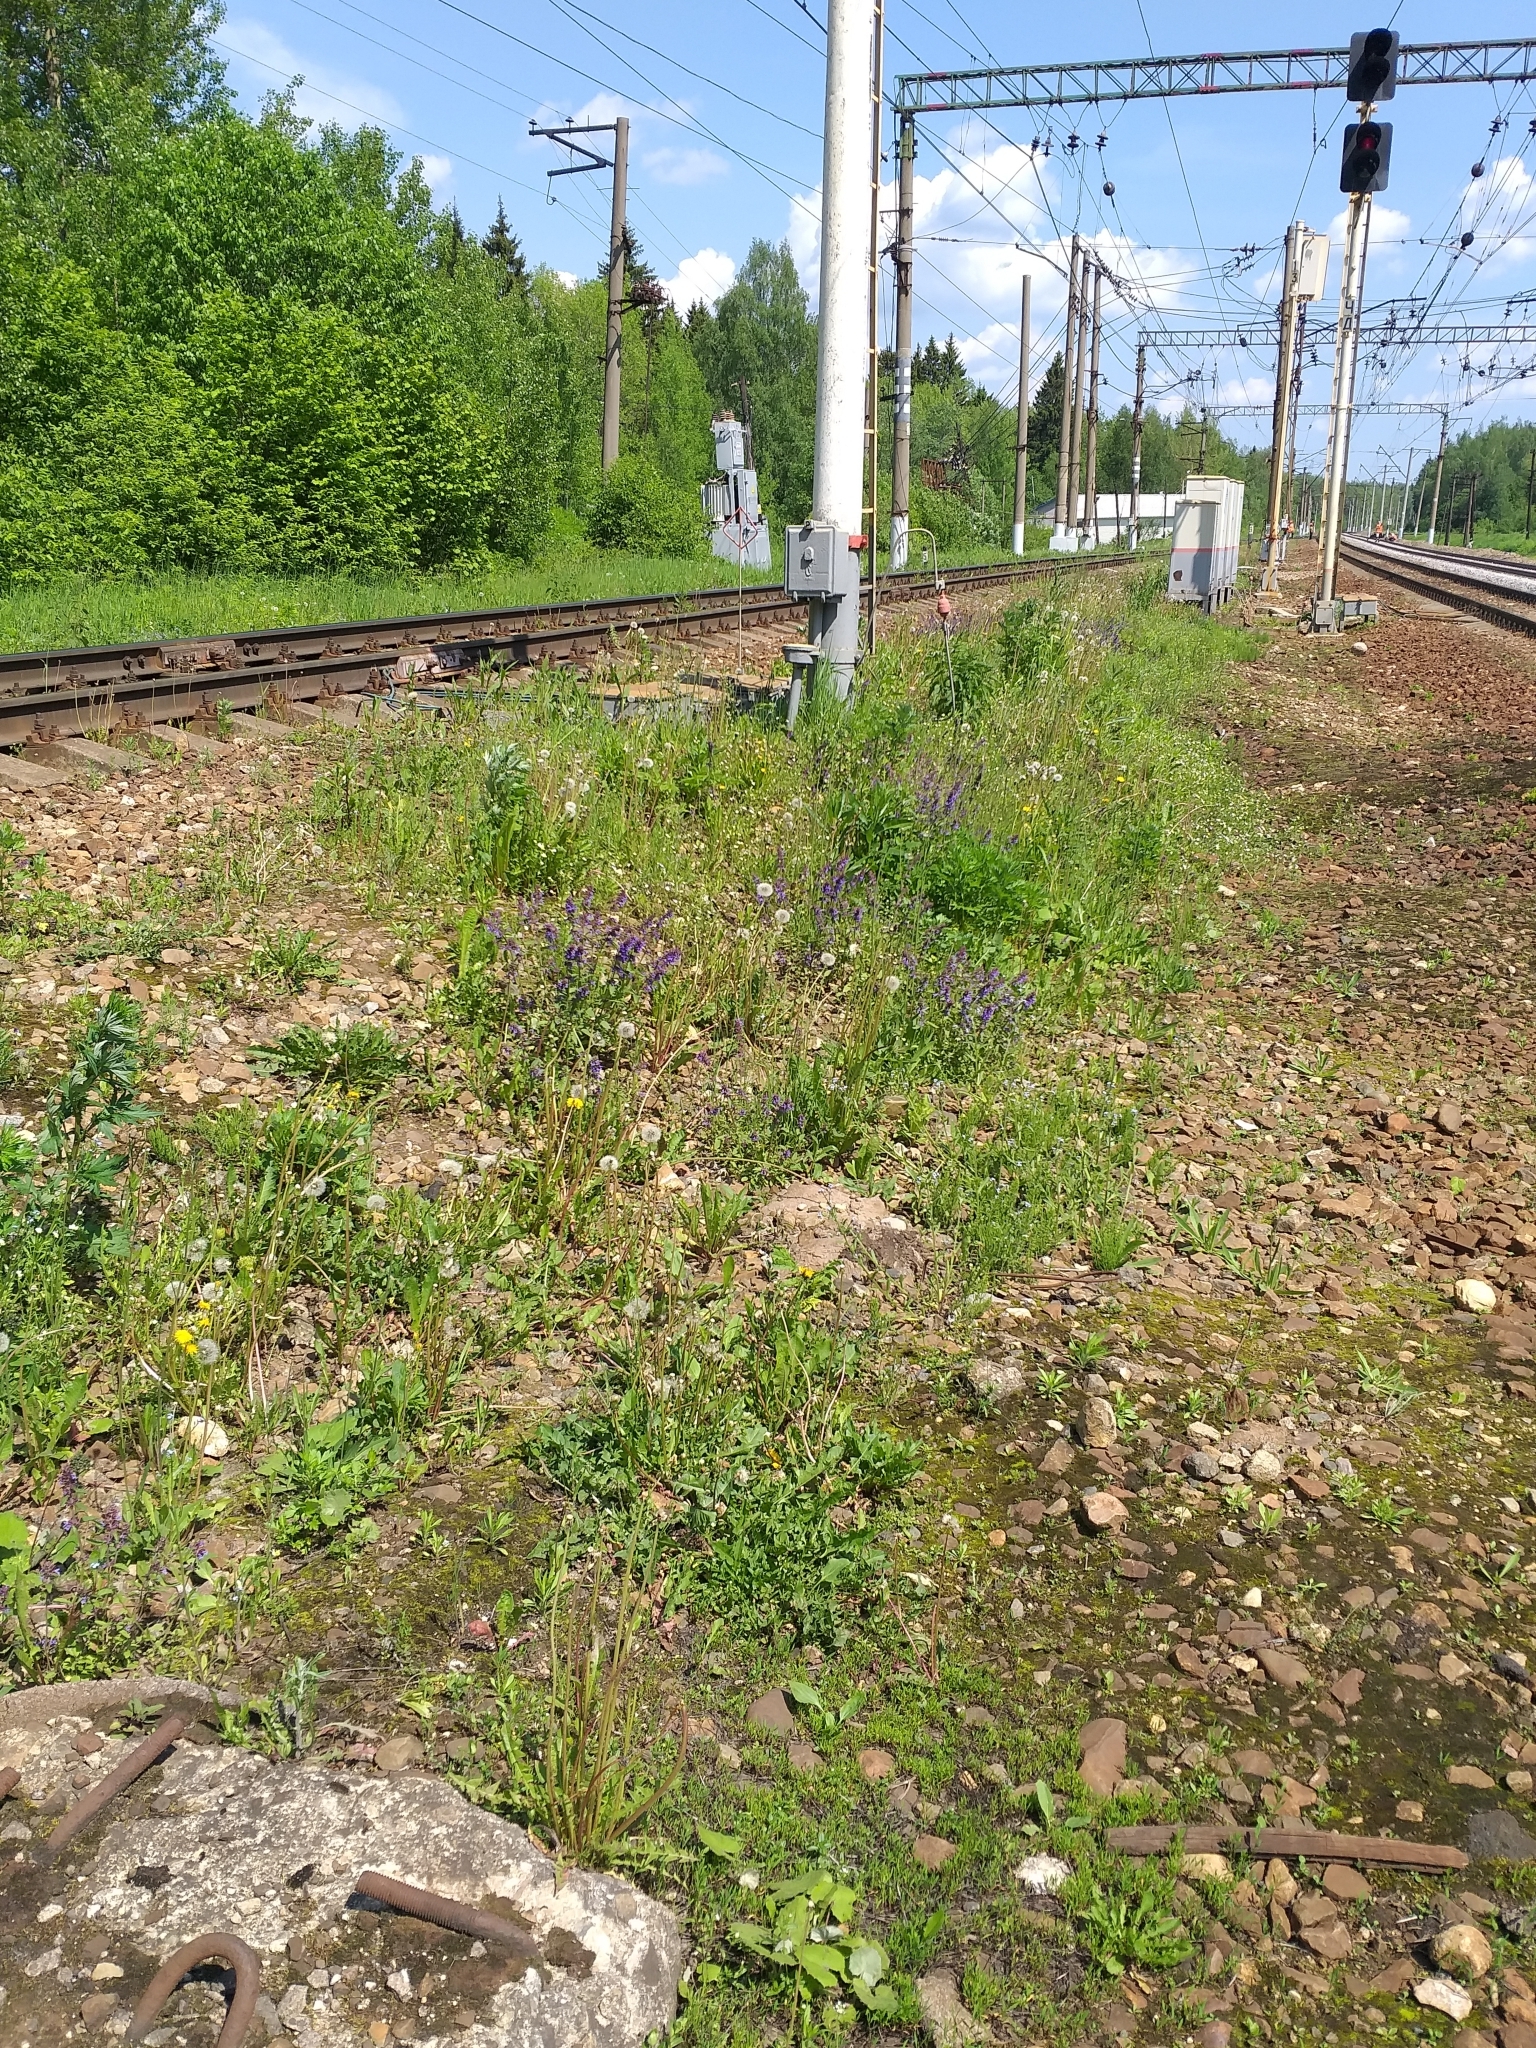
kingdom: Plantae
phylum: Tracheophyta
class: Magnoliopsida
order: Lamiales
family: Lamiaceae
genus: Dracocephalum
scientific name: Dracocephalum nutans
